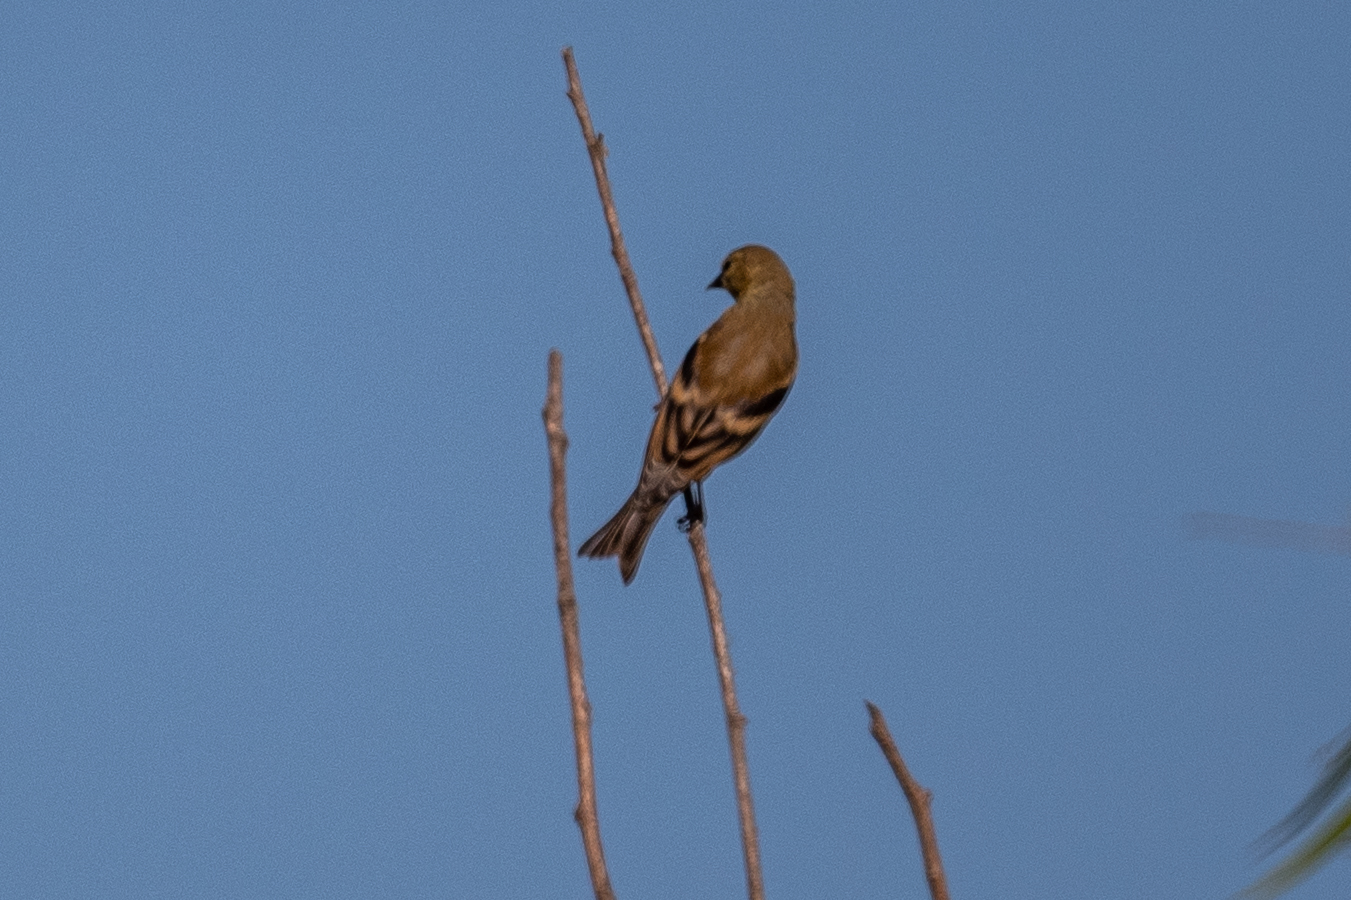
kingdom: Animalia
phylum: Chordata
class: Aves
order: Passeriformes
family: Fringillidae
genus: Spinus
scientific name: Spinus tristis
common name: American goldfinch
